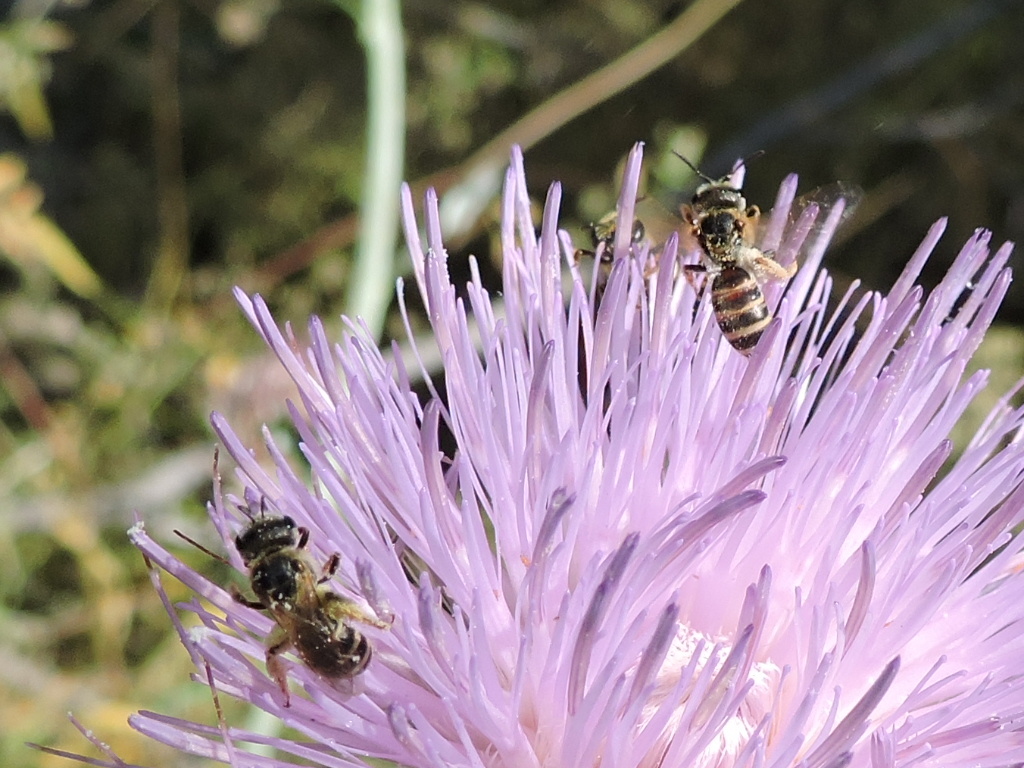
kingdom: Animalia
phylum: Arthropoda
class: Insecta
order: Hymenoptera
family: Halictidae
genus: Halictus
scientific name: Halictus ligatus
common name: Ligated furrow bee
